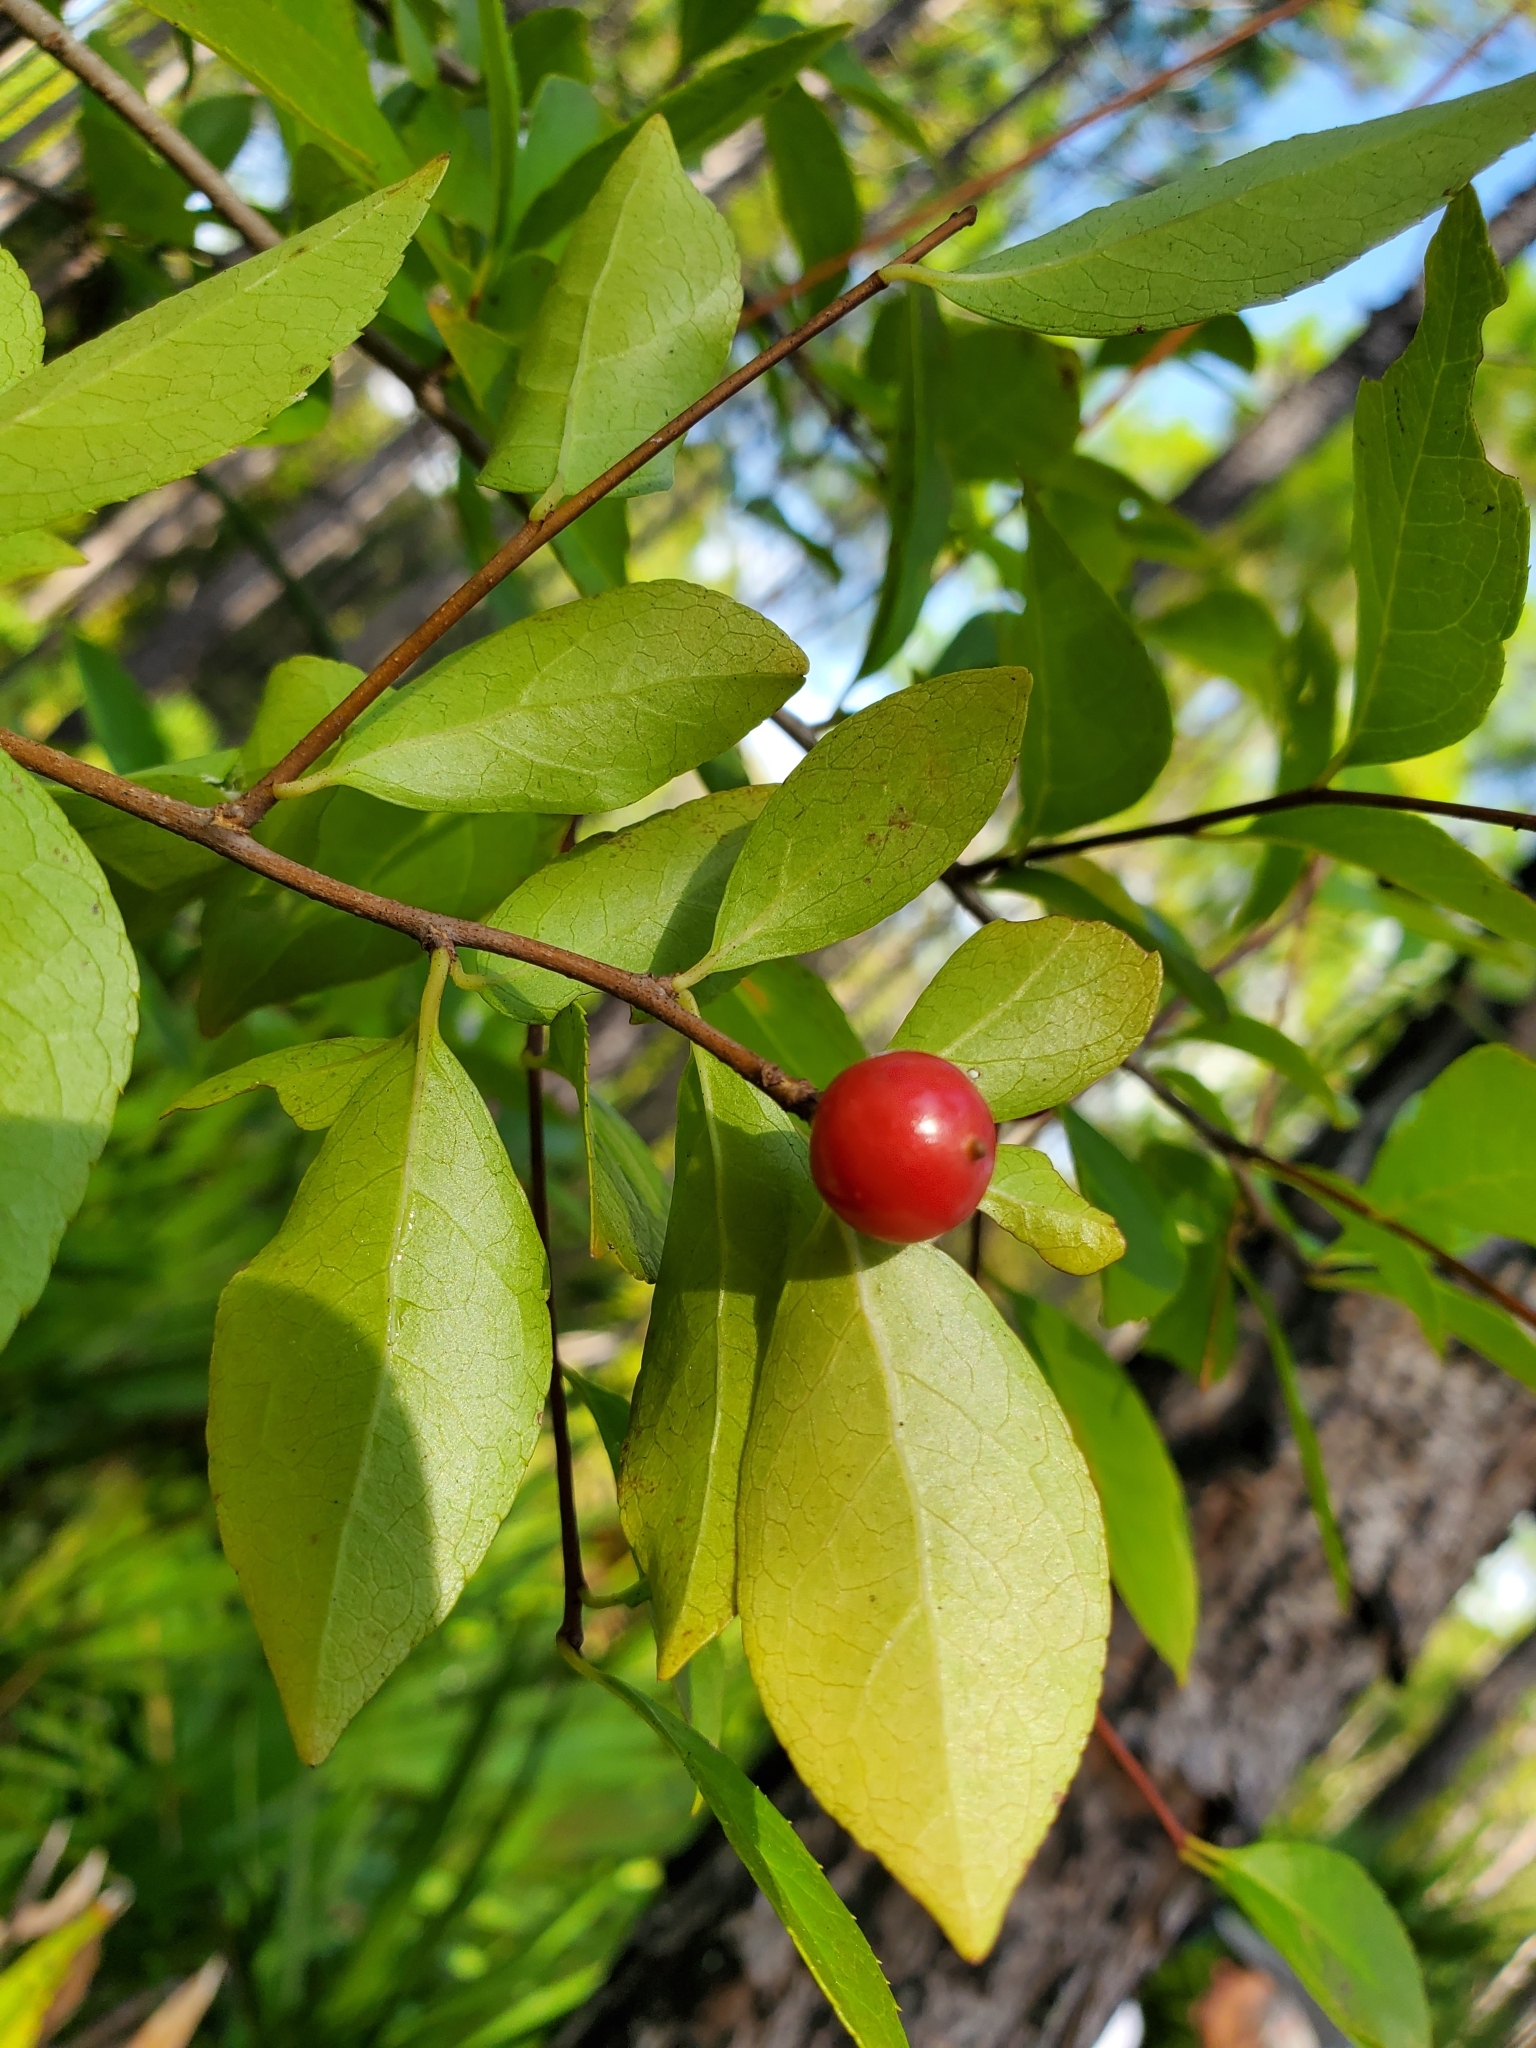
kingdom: Plantae
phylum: Tracheophyta
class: Magnoliopsida
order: Aquifoliales
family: Aquifoliaceae
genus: Ilex
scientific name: Ilex ambigua
